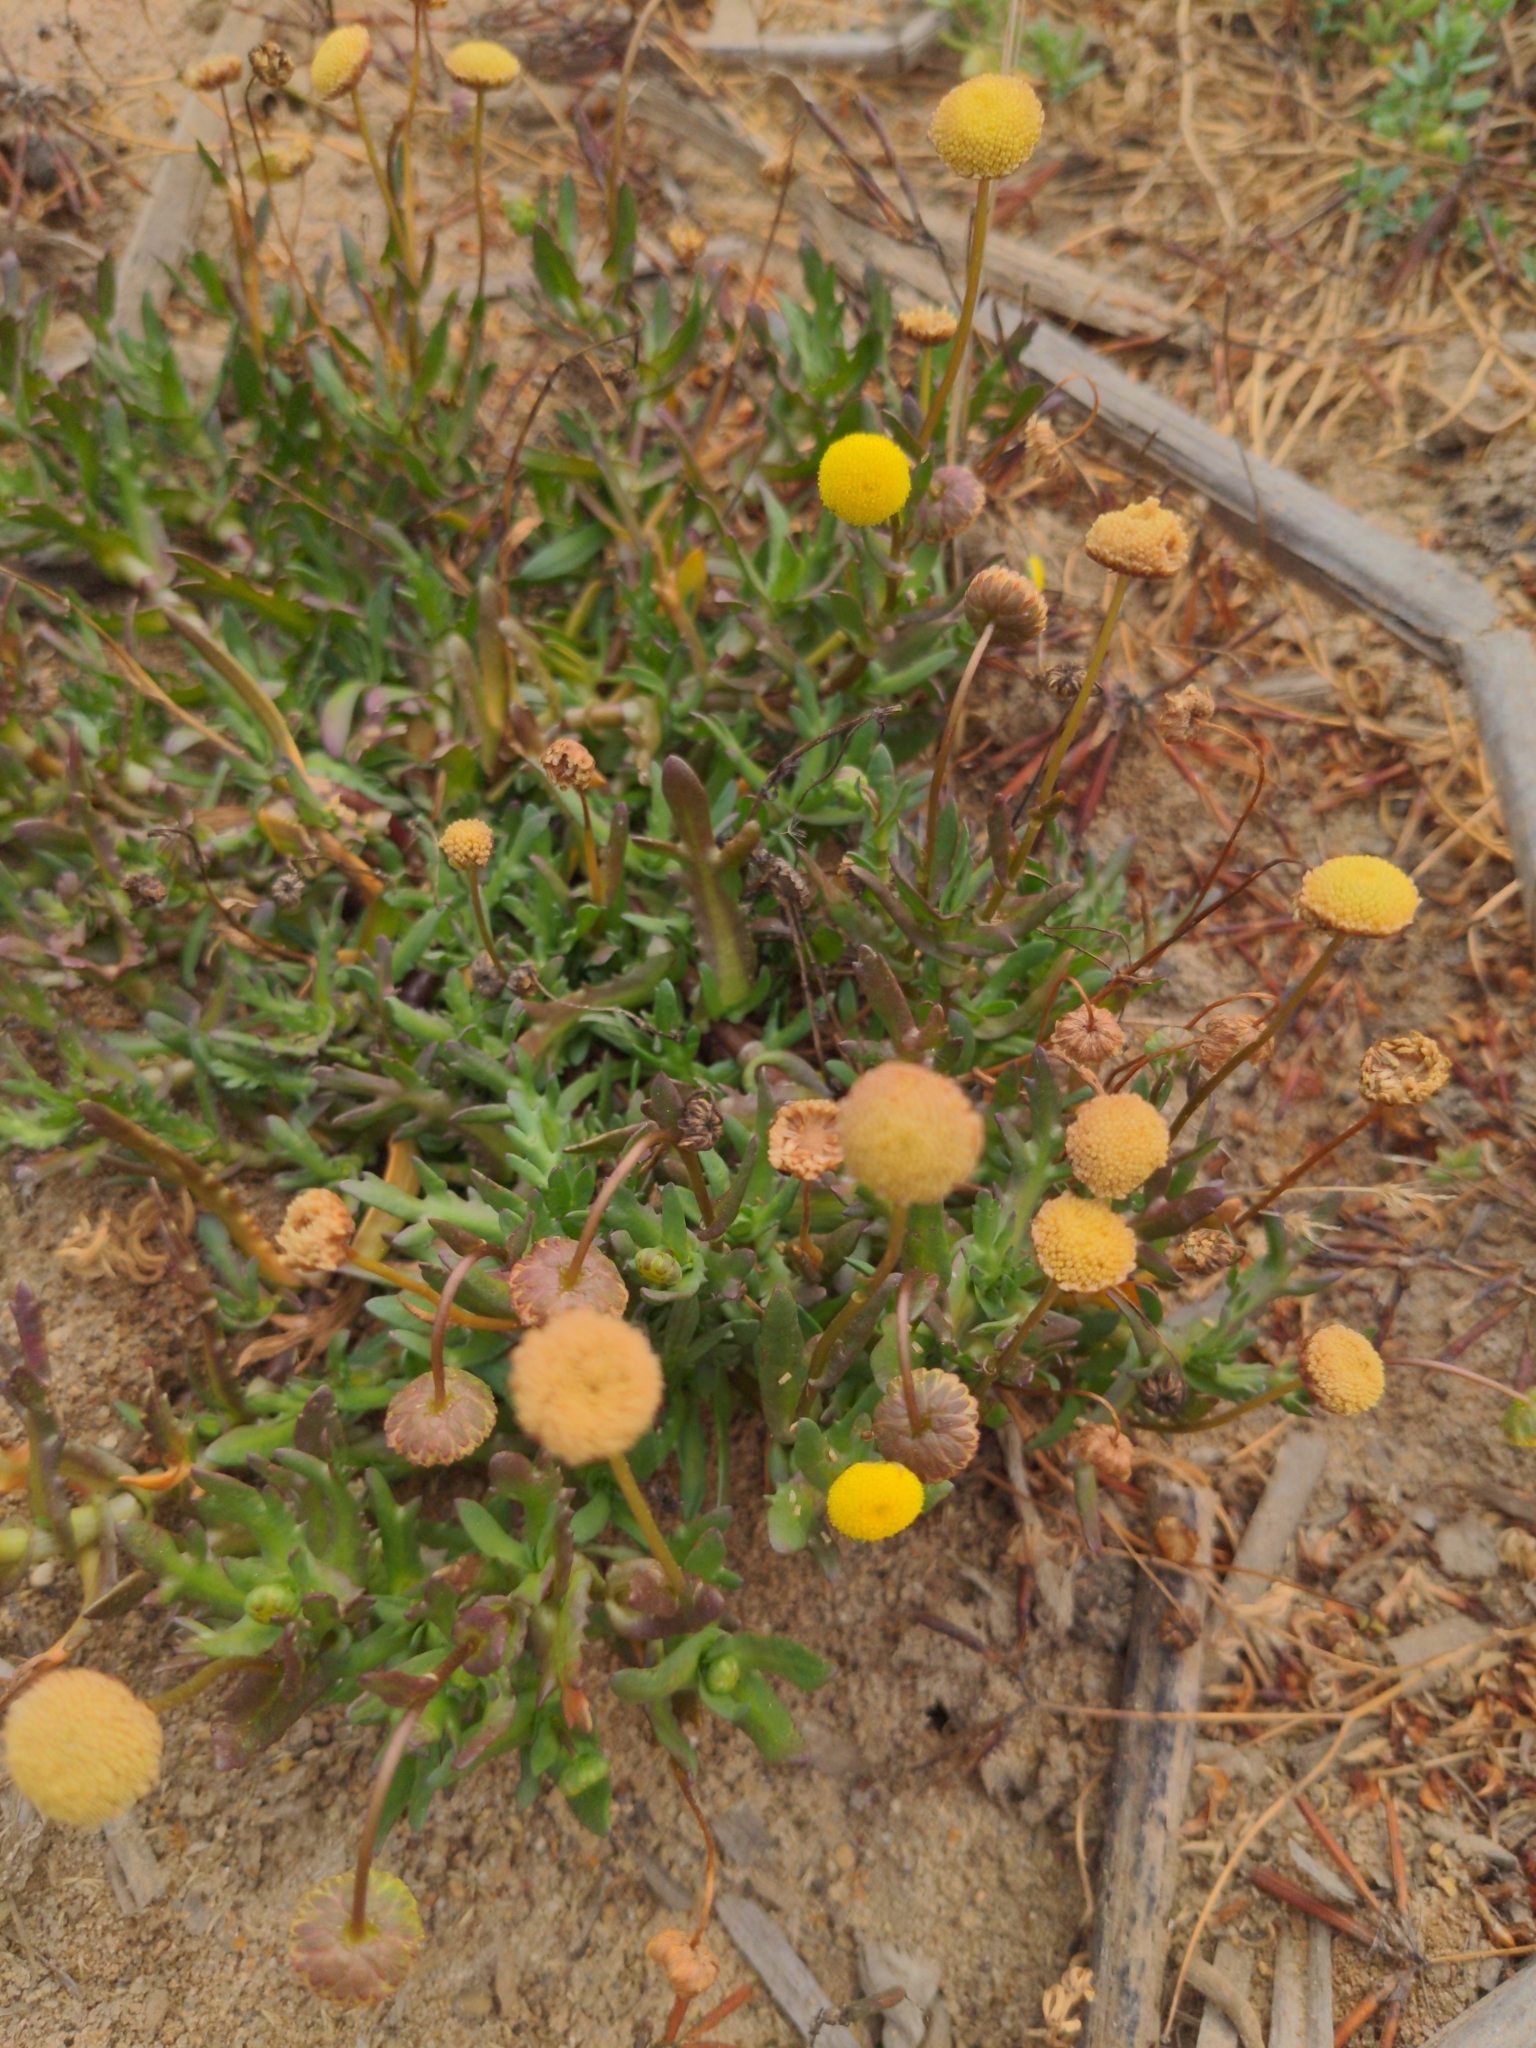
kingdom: Plantae
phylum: Tracheophyta
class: Magnoliopsida
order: Asterales
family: Asteraceae
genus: Cotula
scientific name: Cotula coronopifolia
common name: Buttonweed
